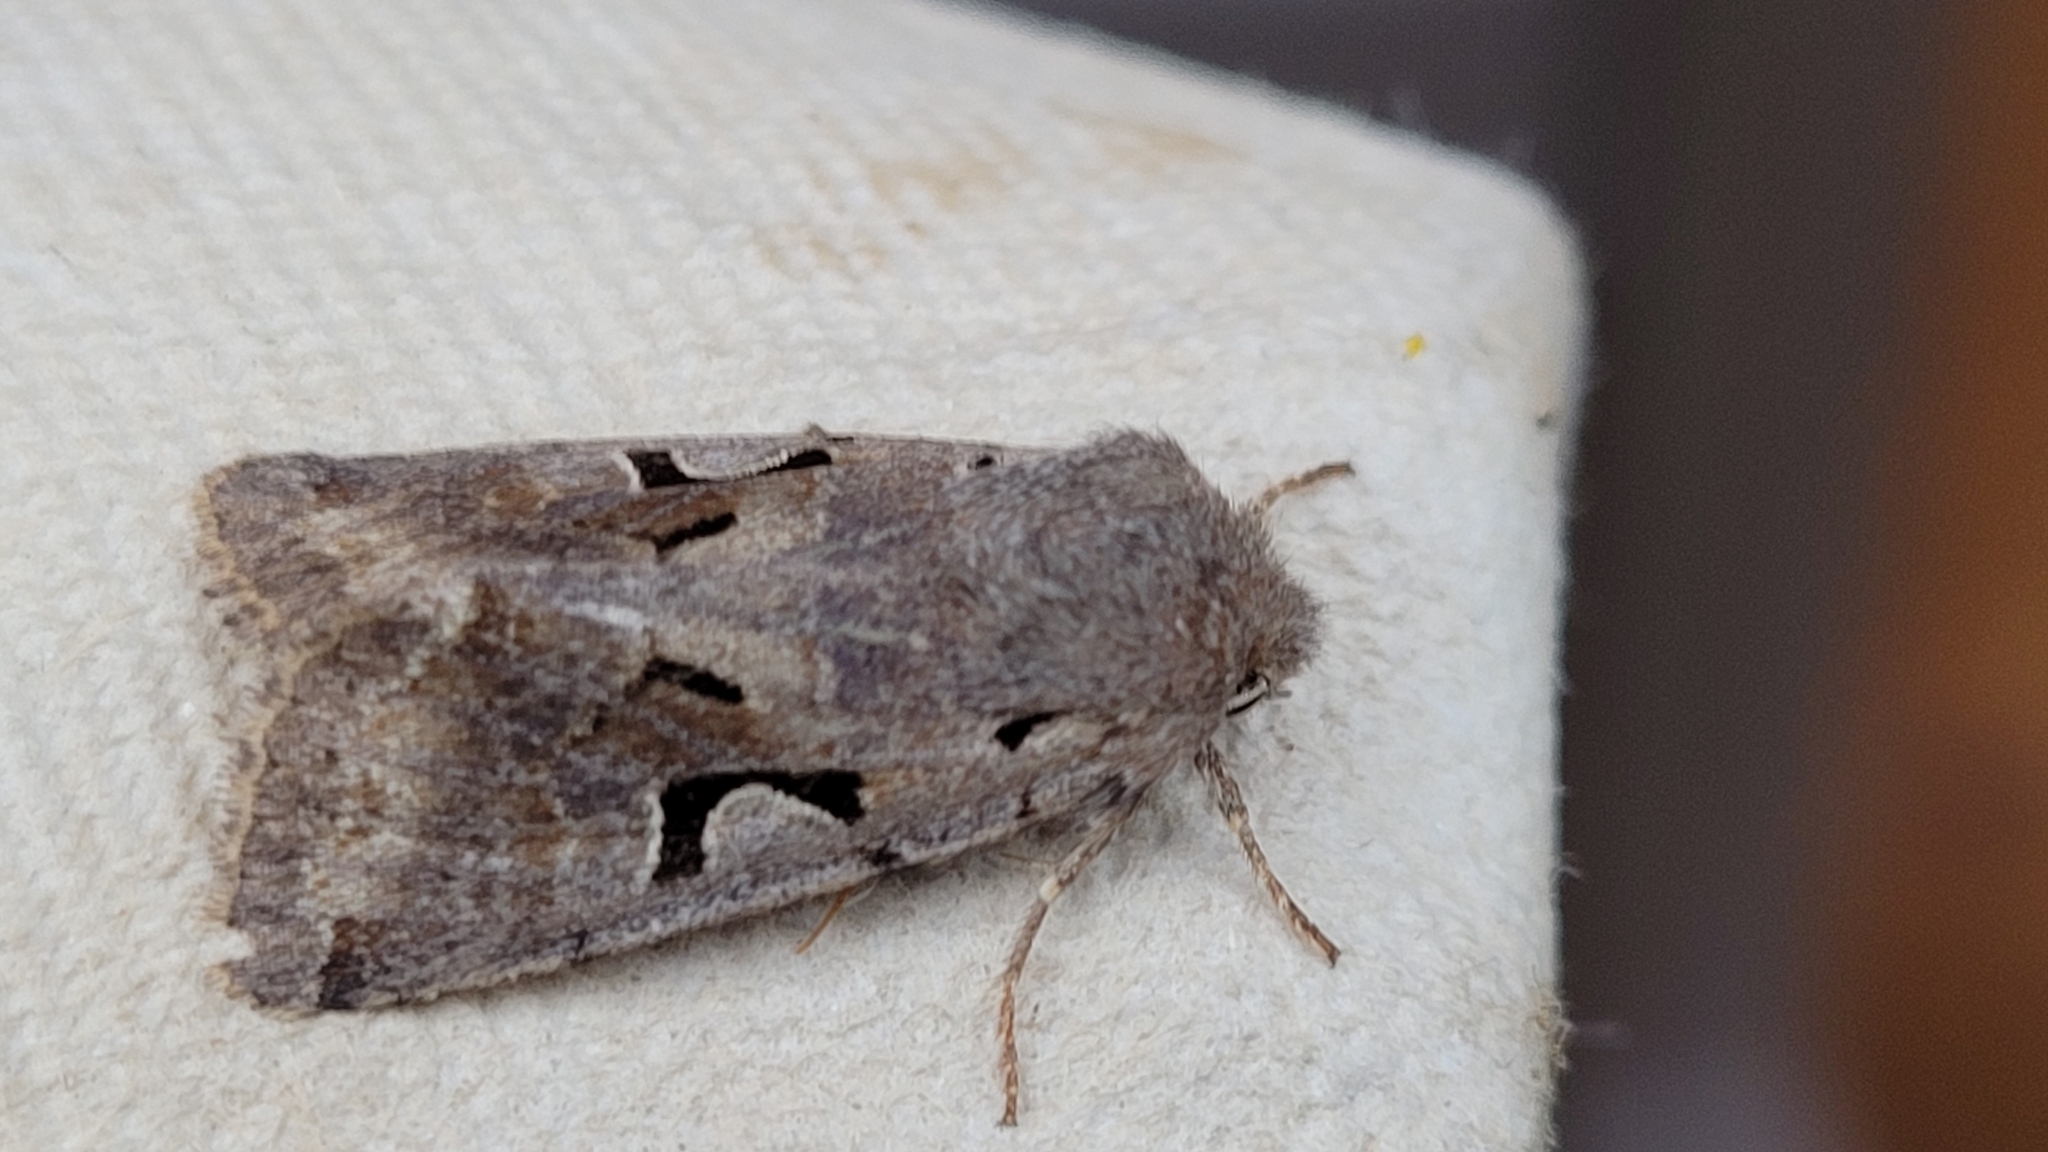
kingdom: Animalia
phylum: Arthropoda
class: Insecta
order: Lepidoptera
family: Noctuidae
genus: Orthosia
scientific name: Orthosia gothica
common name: Hebrew character
